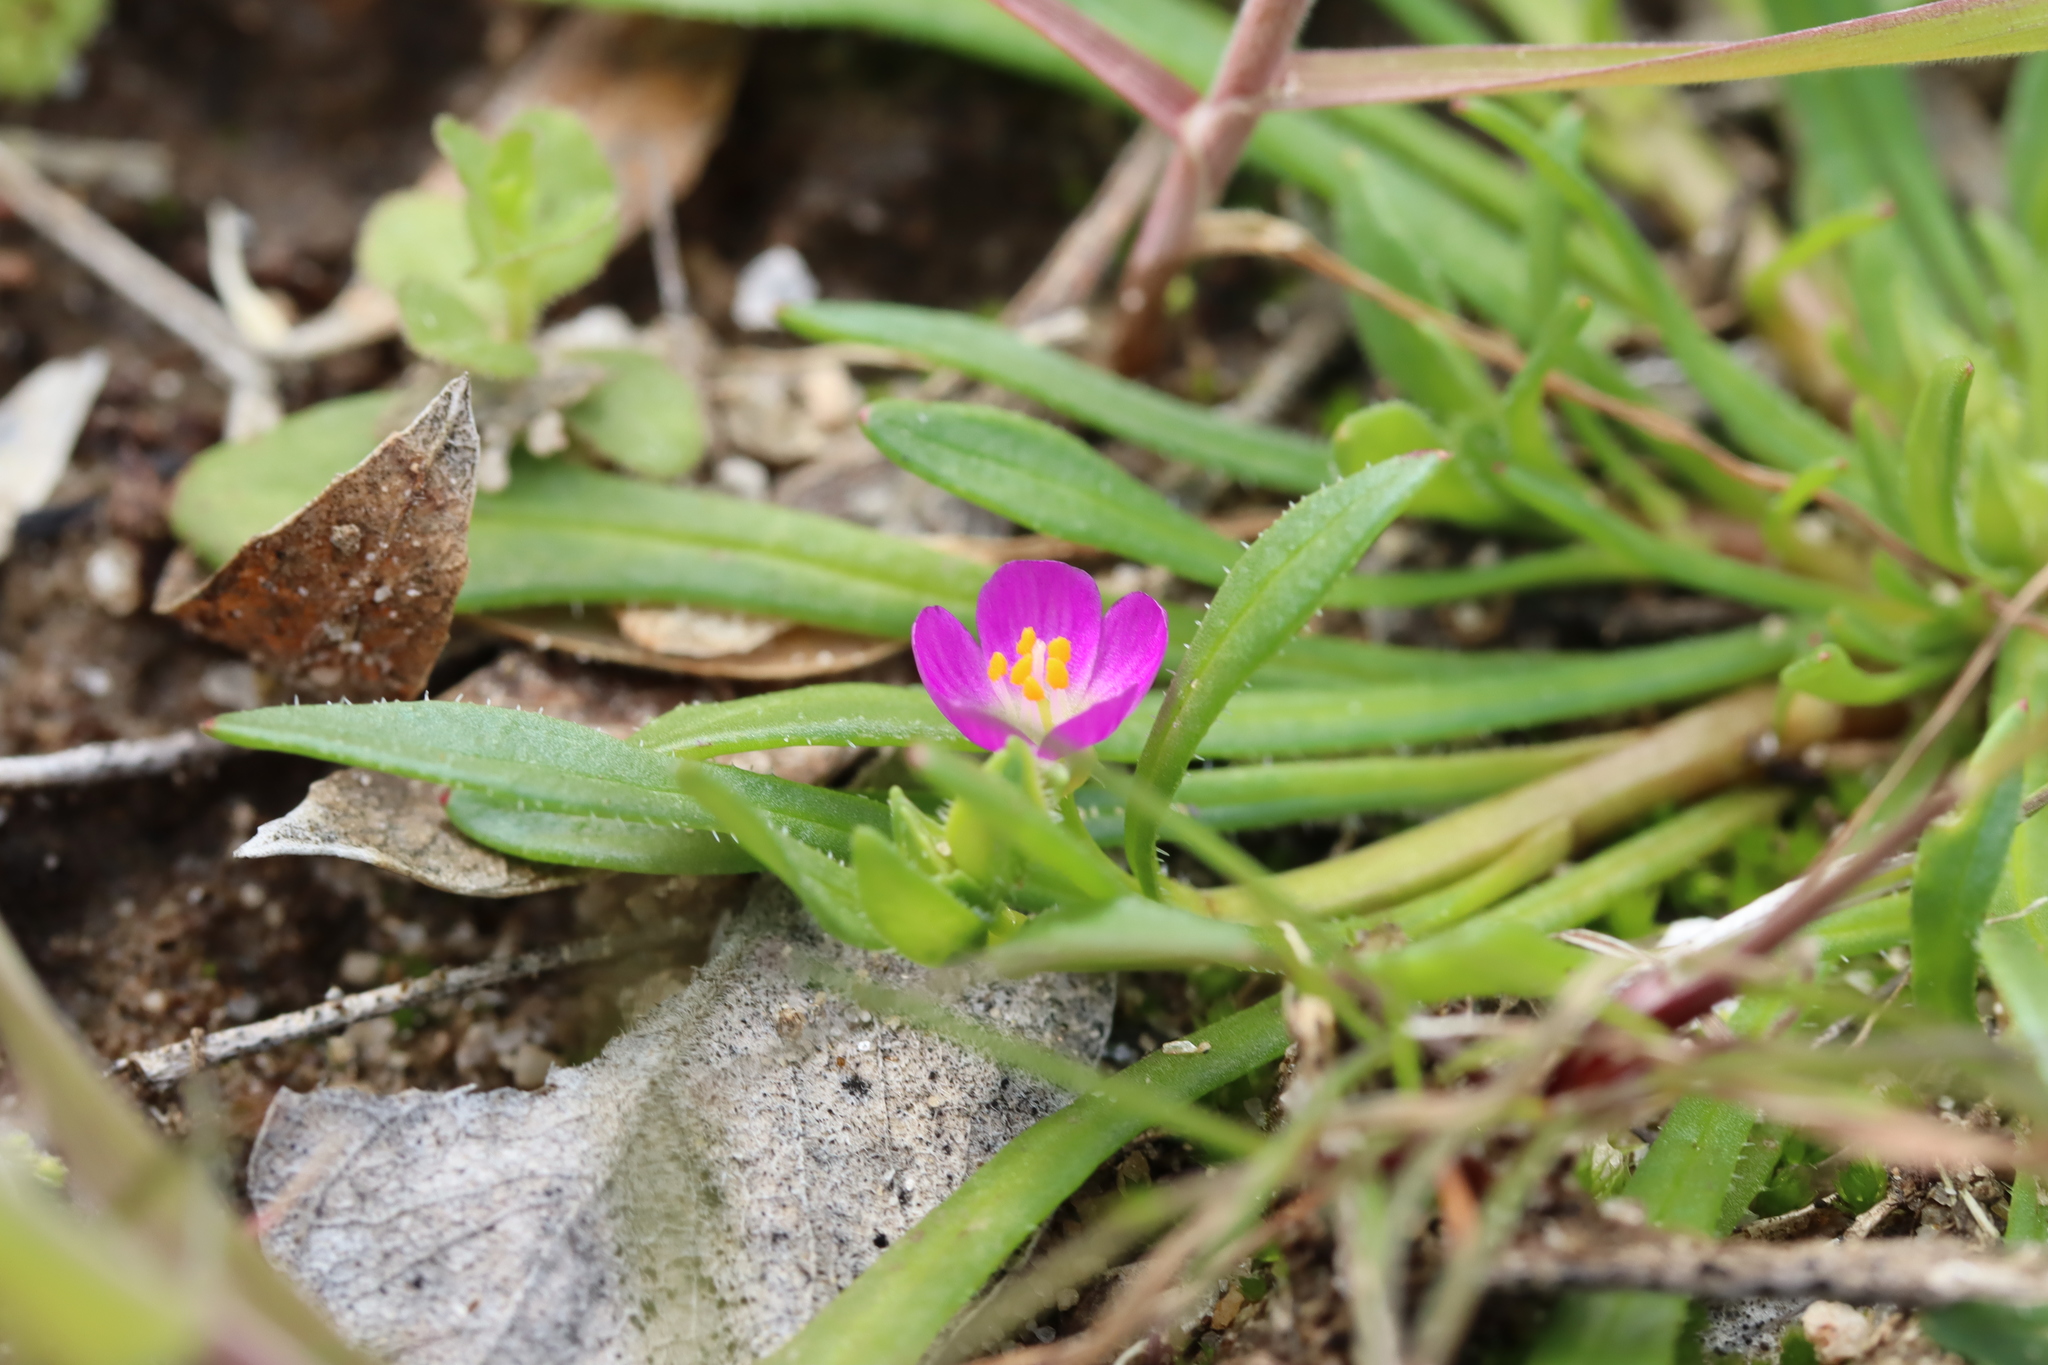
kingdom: Plantae
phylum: Tracheophyta
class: Magnoliopsida
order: Caryophyllales
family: Montiaceae
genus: Calandrinia
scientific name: Calandrinia menziesii
